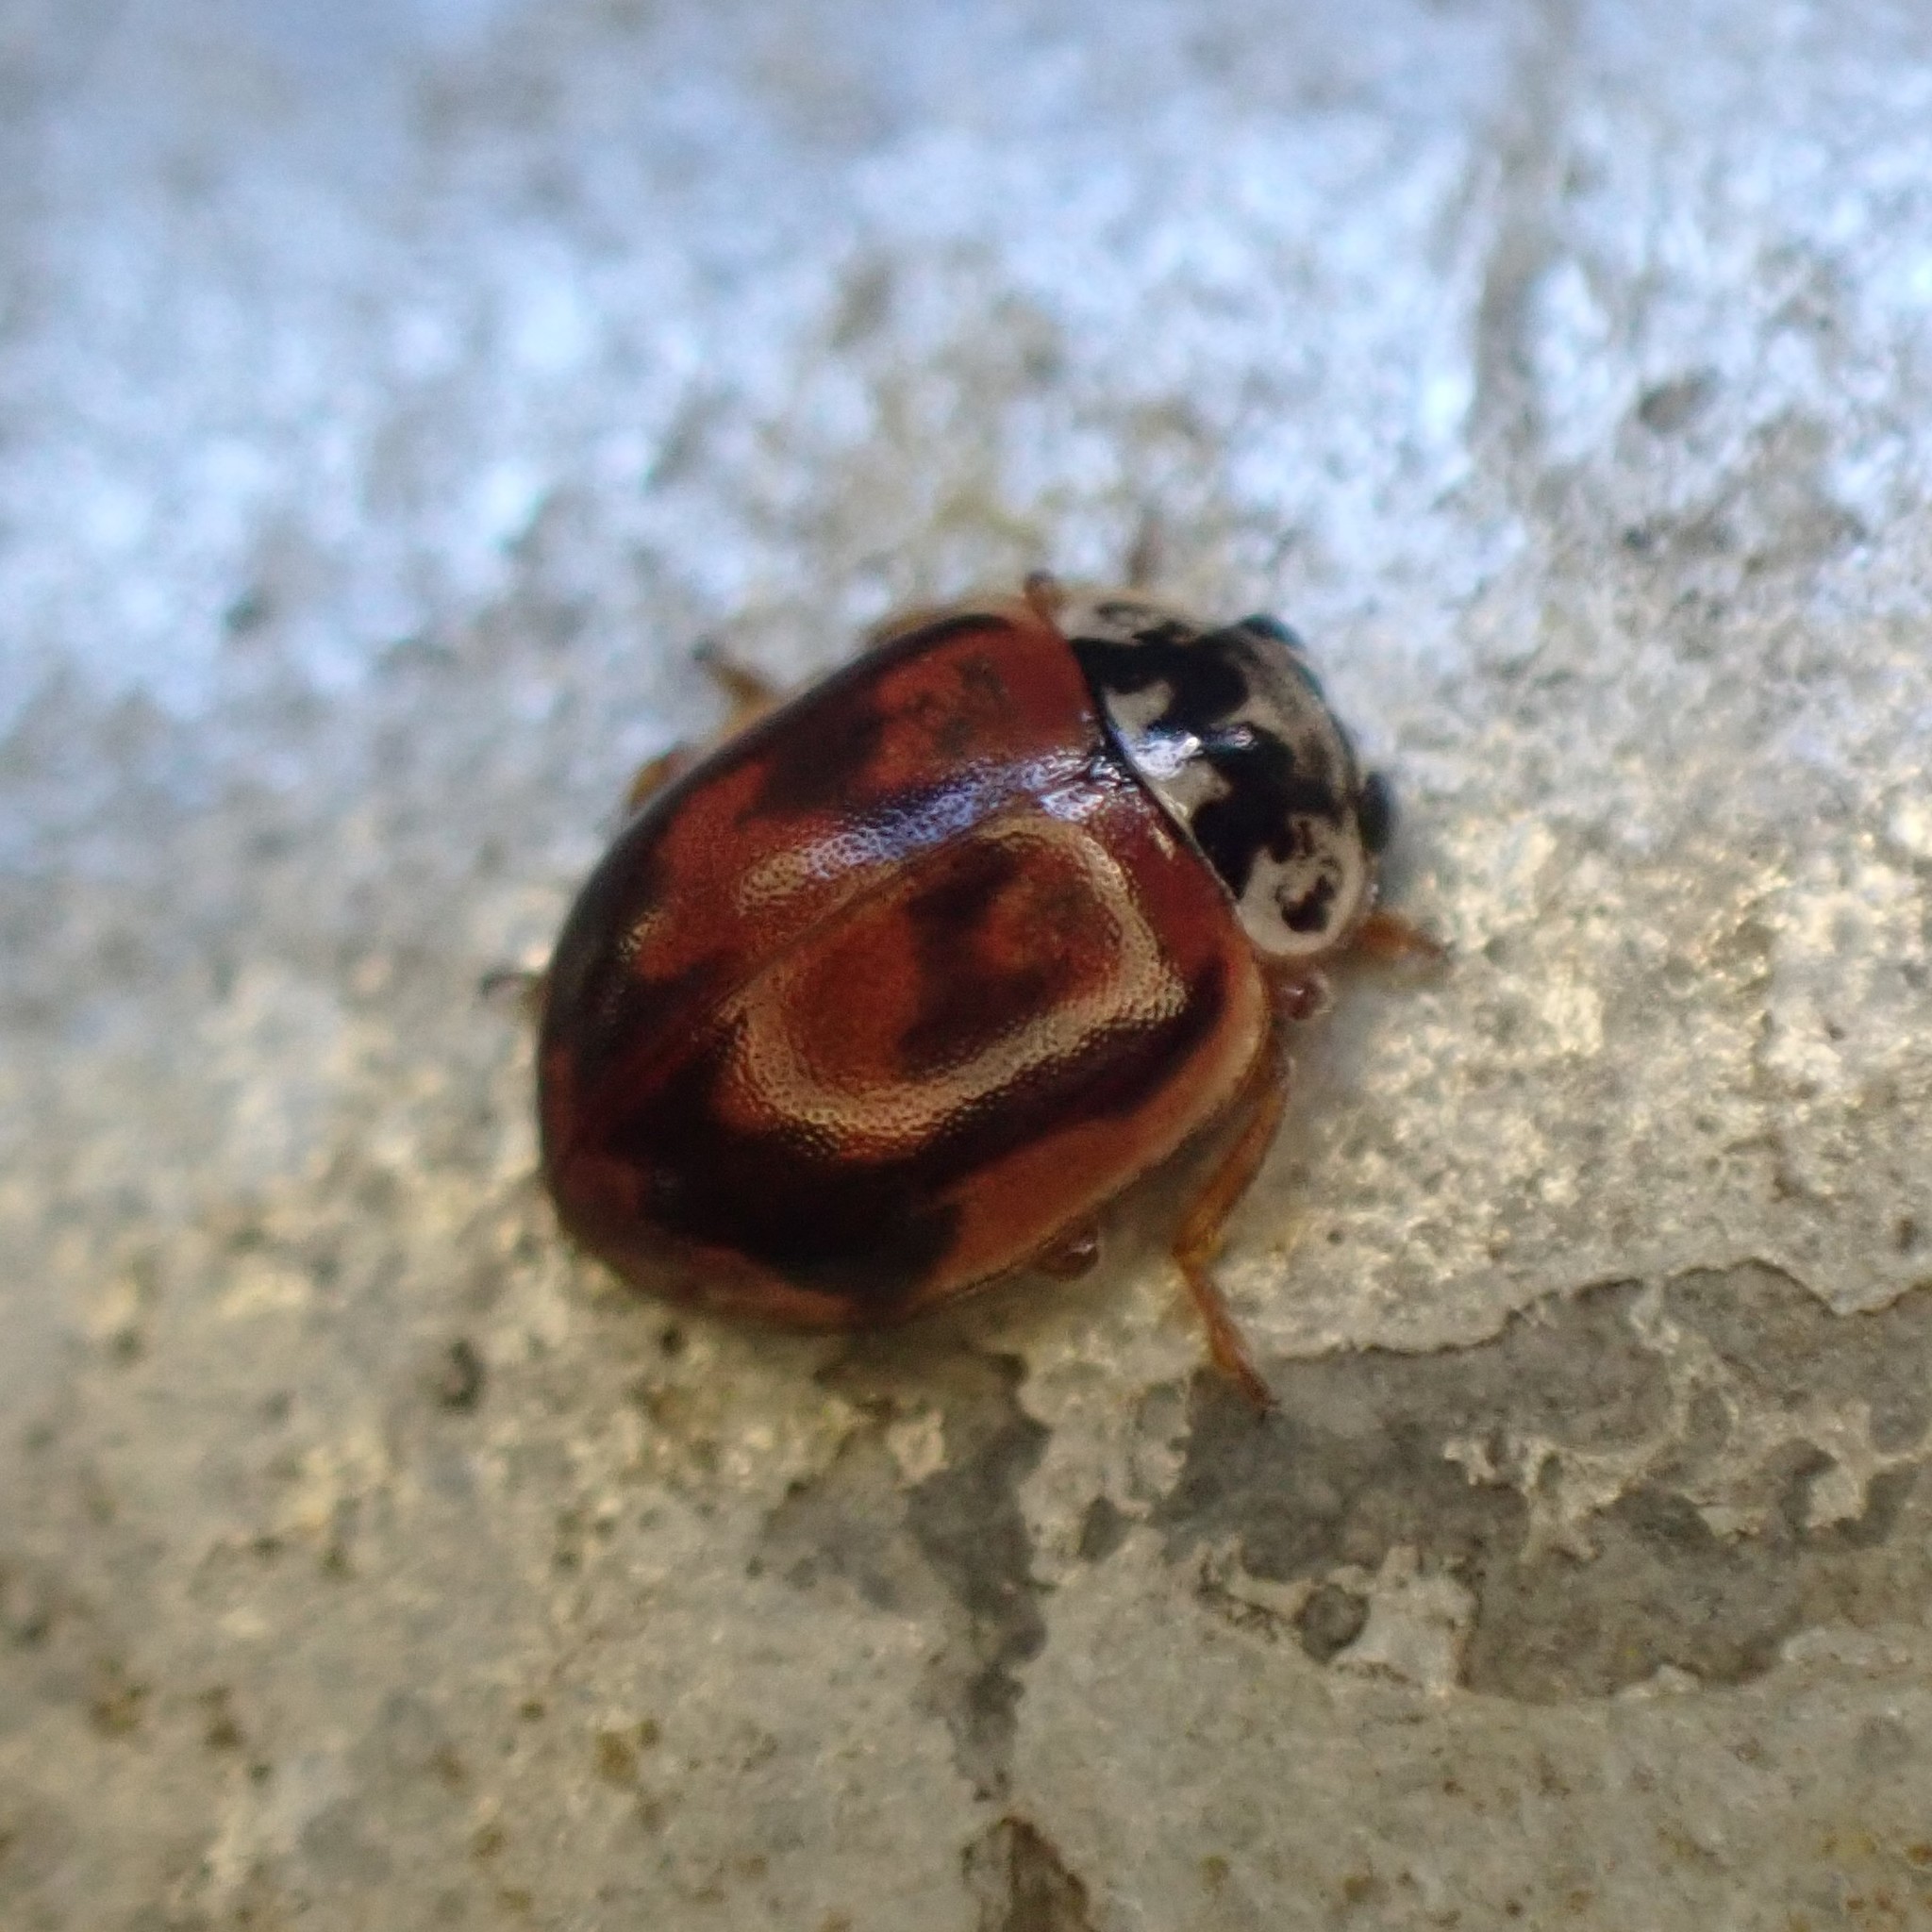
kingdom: Animalia
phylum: Arthropoda
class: Insecta
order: Coleoptera
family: Coccinellidae
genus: Mulsantina
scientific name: Mulsantina picta
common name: Painted ladybird
